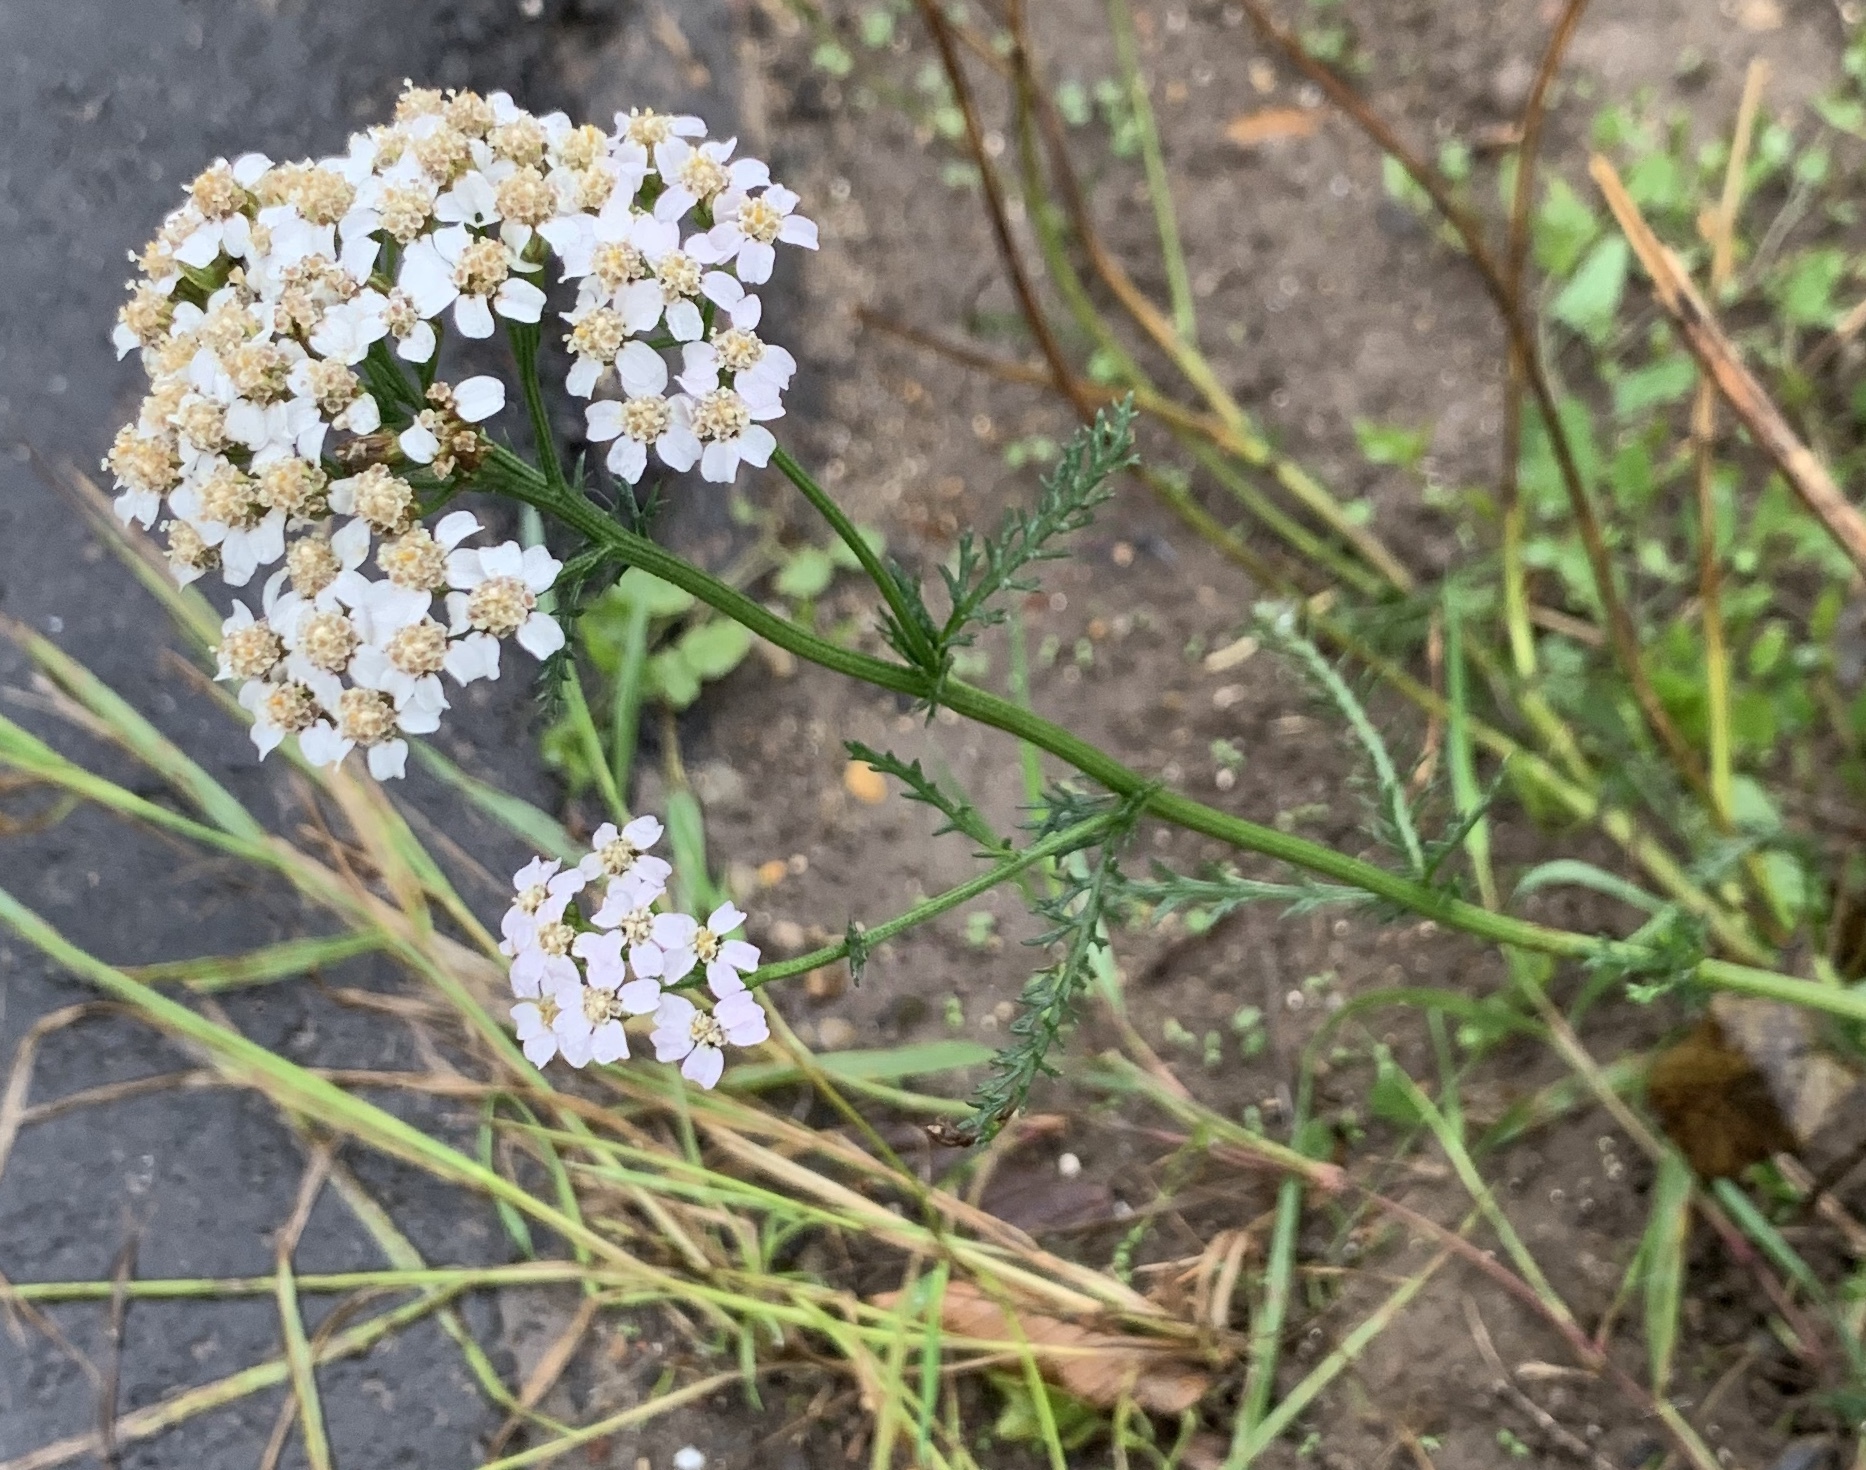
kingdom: Plantae
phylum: Tracheophyta
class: Magnoliopsida
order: Asterales
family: Asteraceae
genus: Achillea
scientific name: Achillea millefolium
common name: Yarrow
